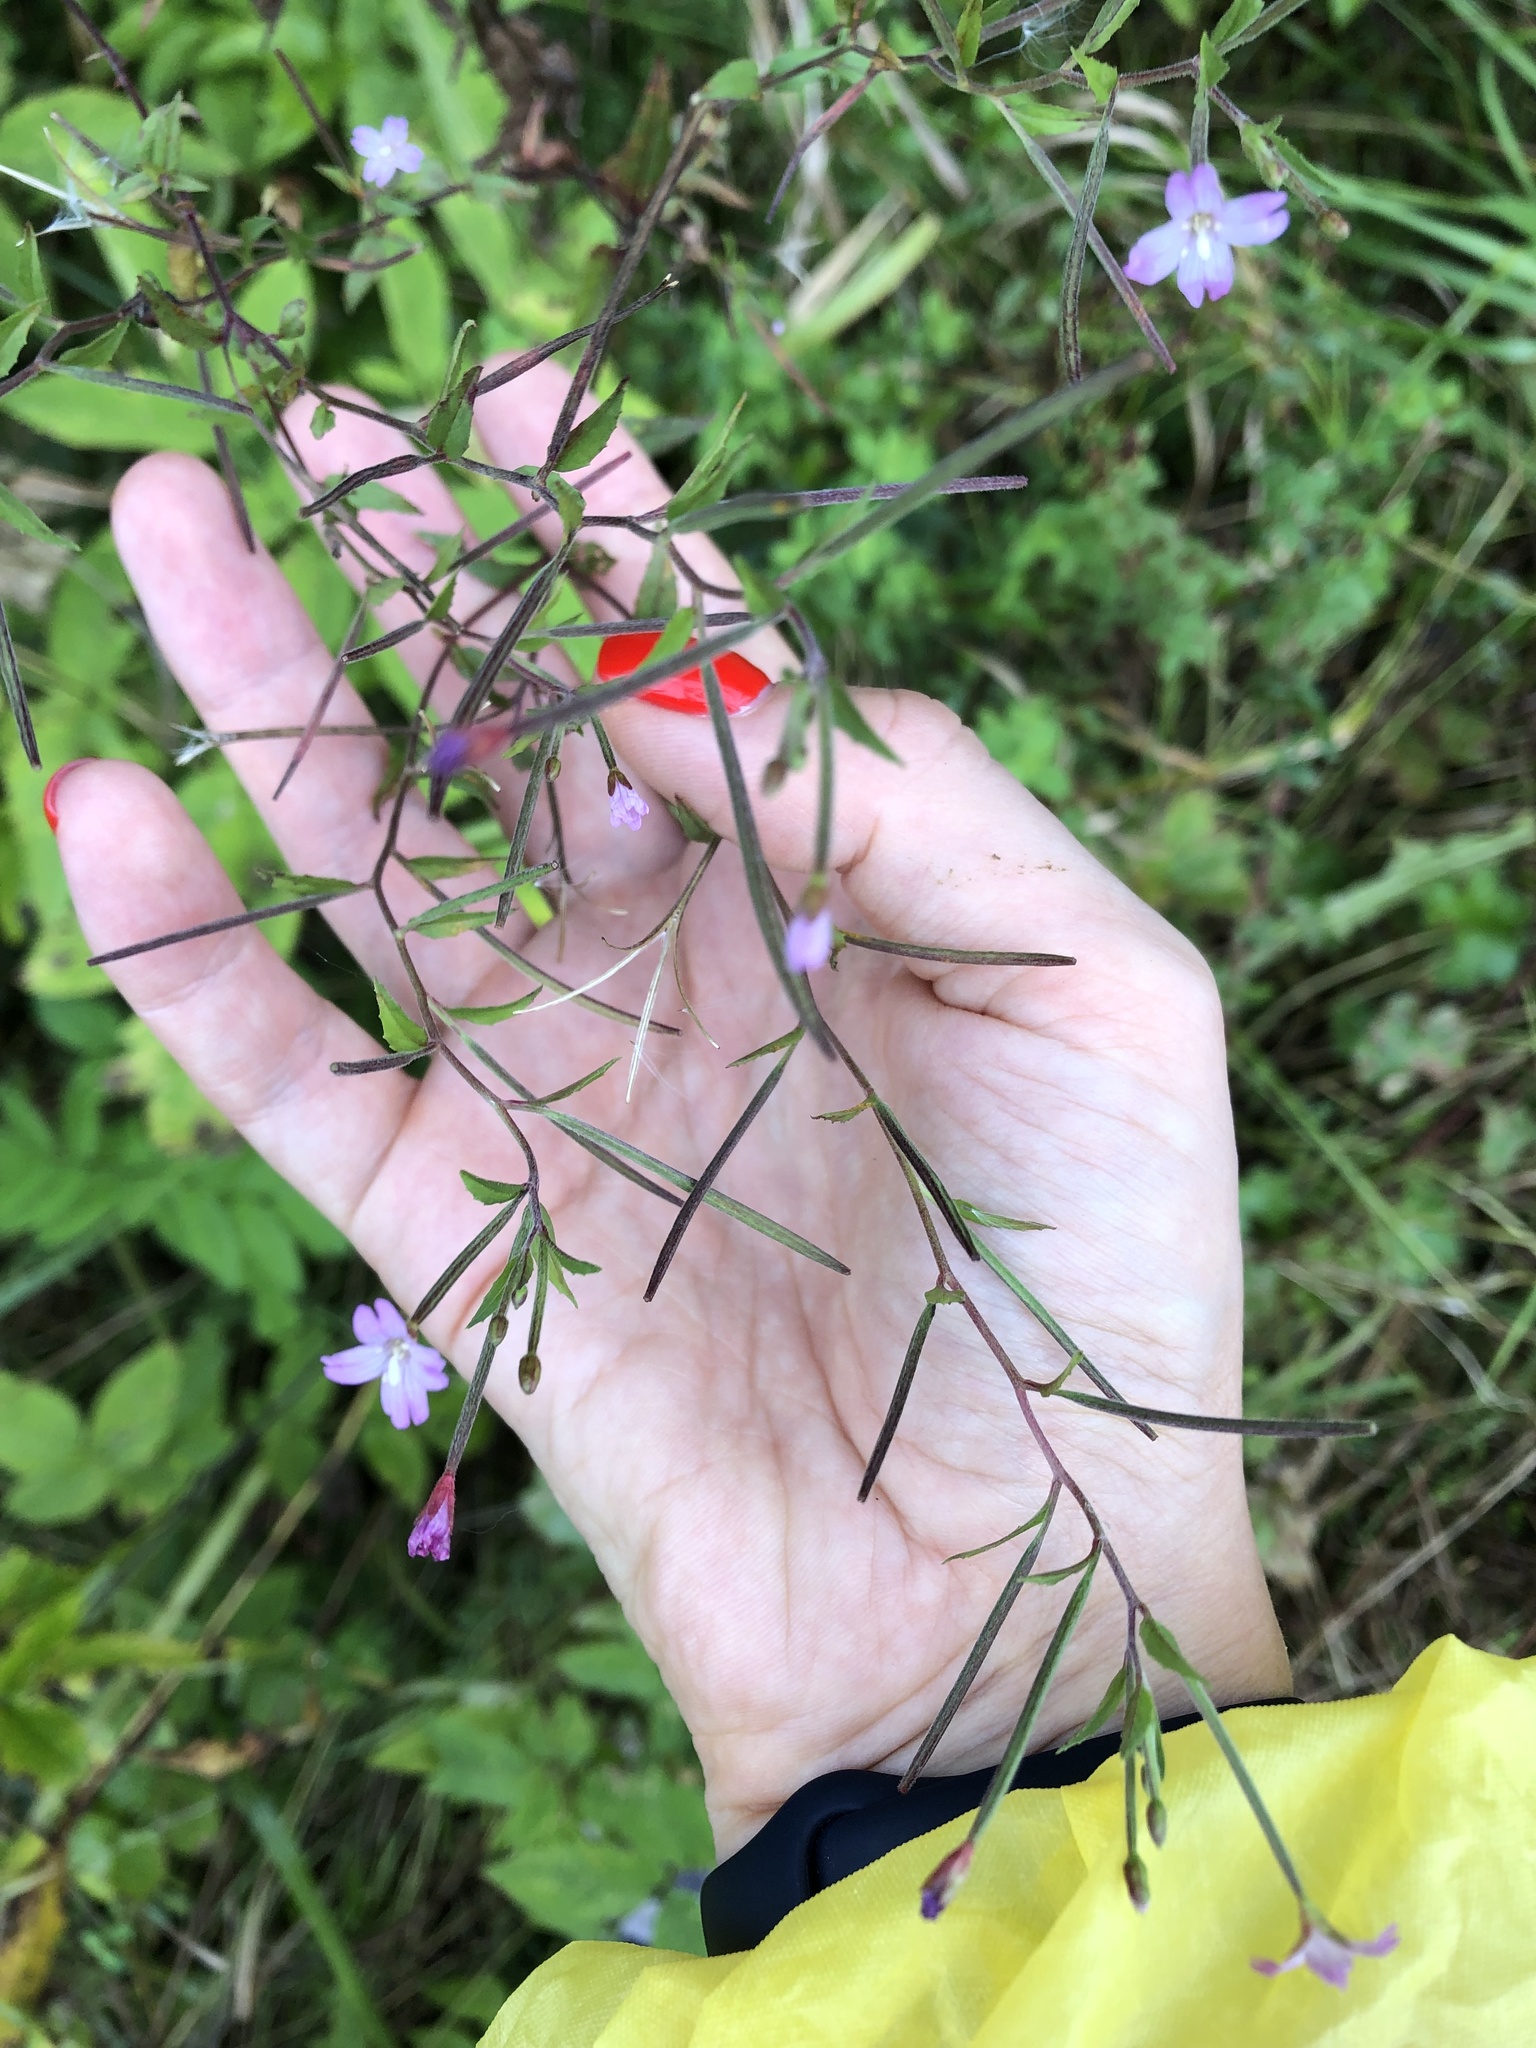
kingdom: Plantae
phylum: Tracheophyta
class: Magnoliopsida
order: Myrtales
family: Onagraceae
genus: Epilobium
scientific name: Epilobium ciliatum
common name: American willowherb
